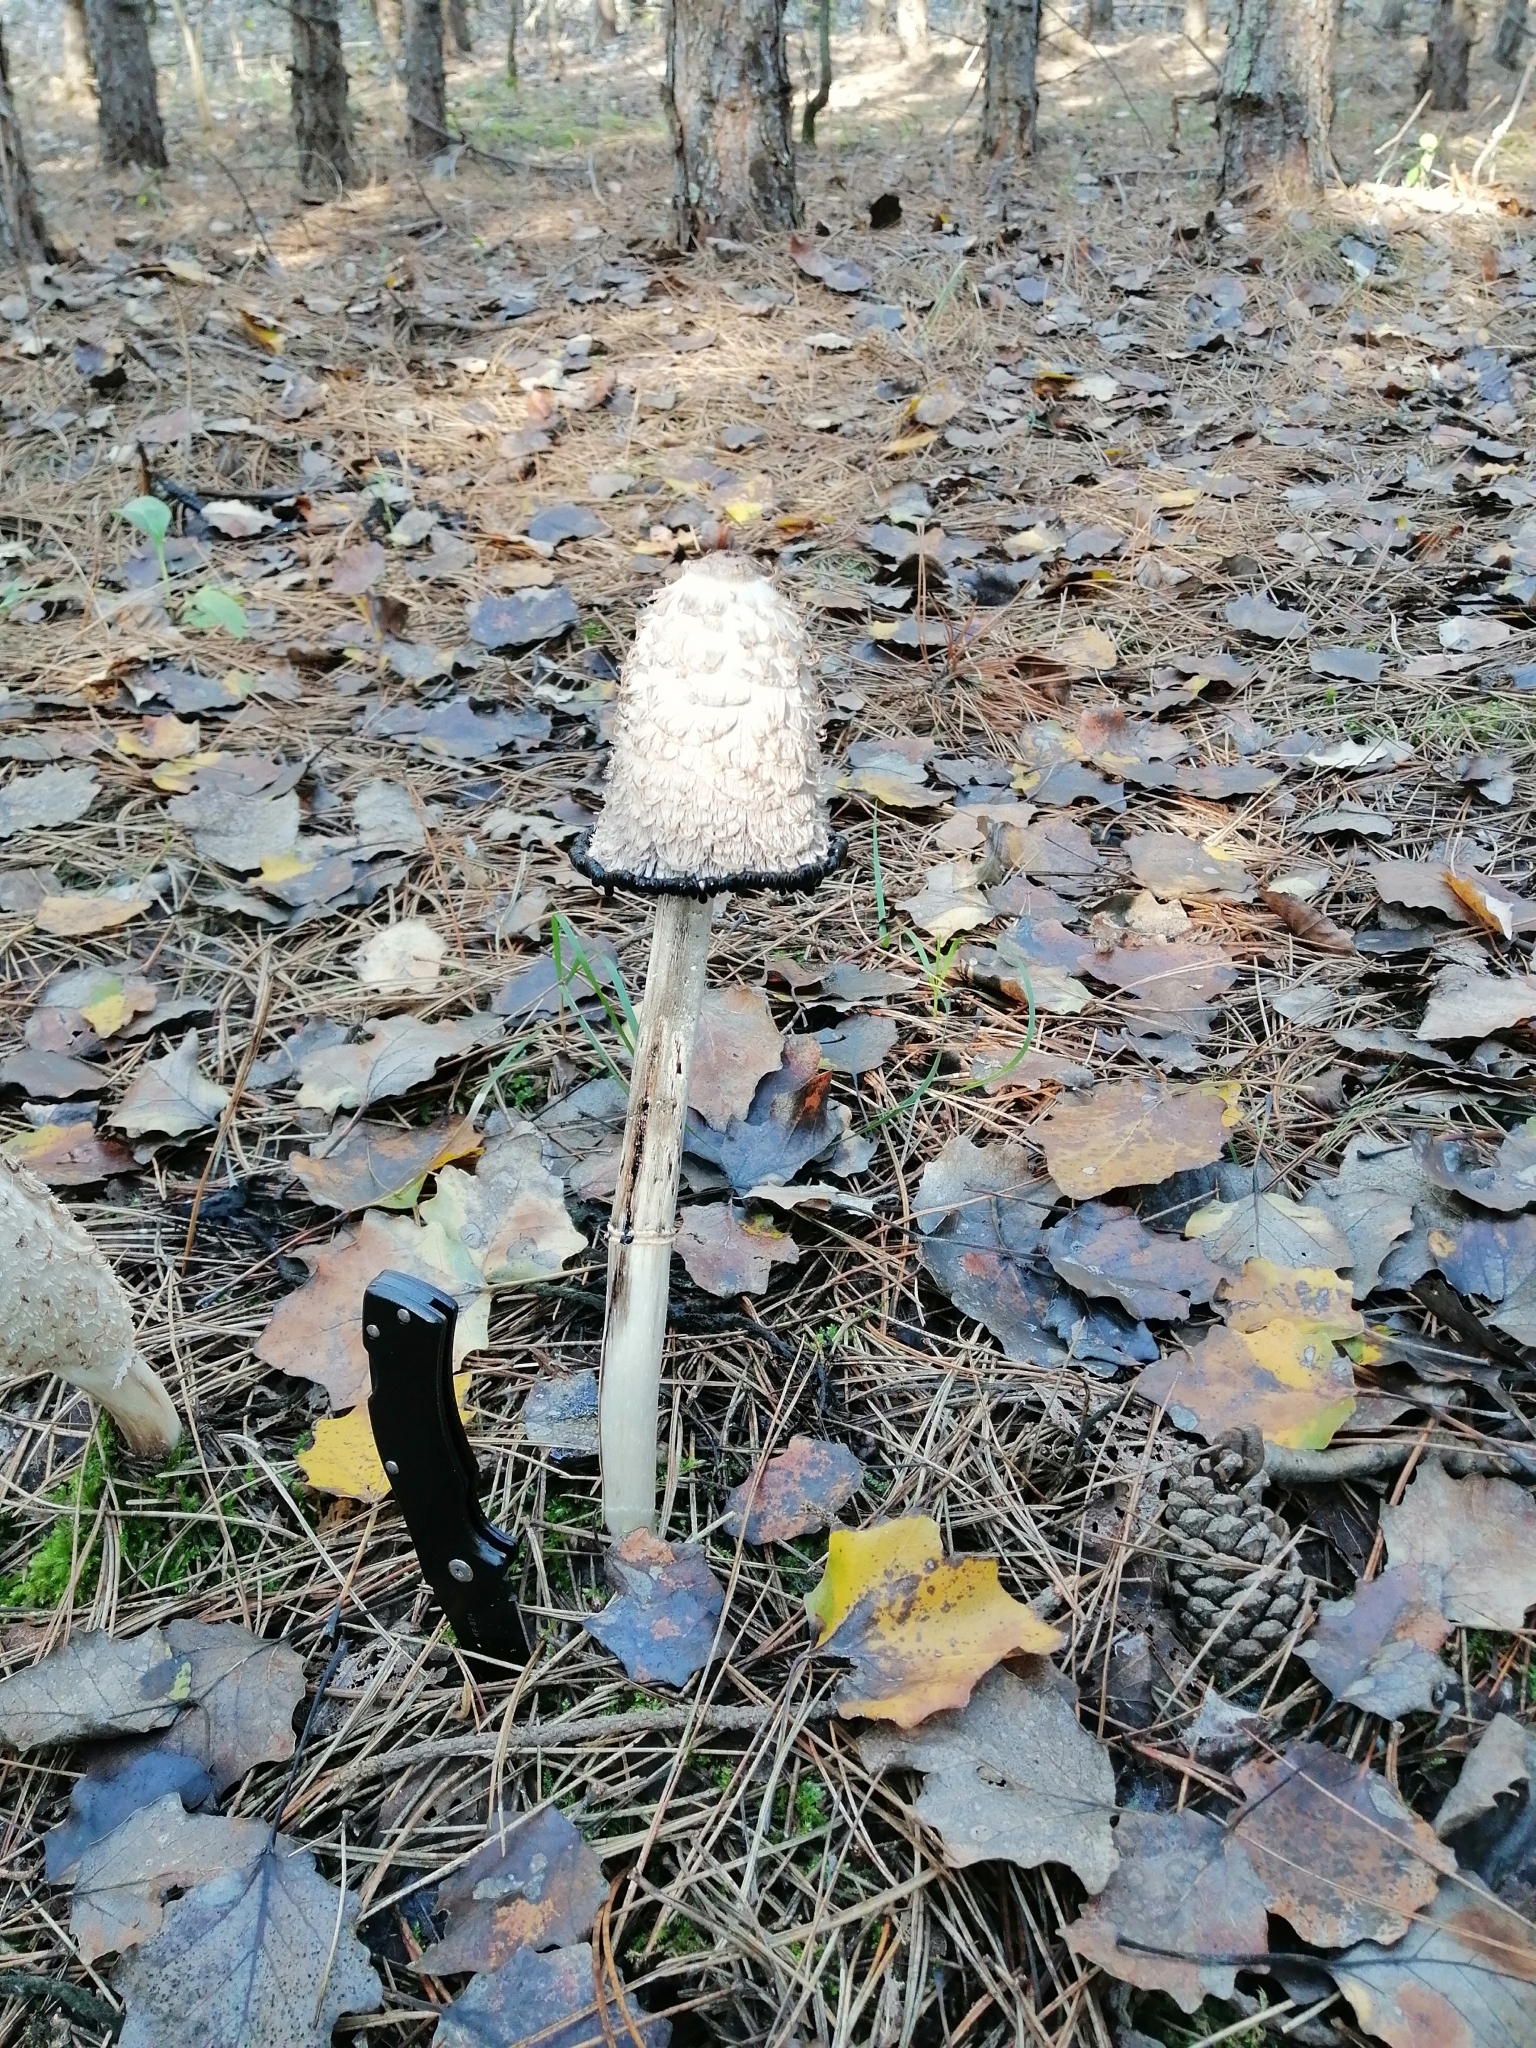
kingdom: Fungi
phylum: Basidiomycota
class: Agaricomycetes
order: Agaricales
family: Agaricaceae
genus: Coprinus
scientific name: Coprinus comatus
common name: Lawyer's wig
